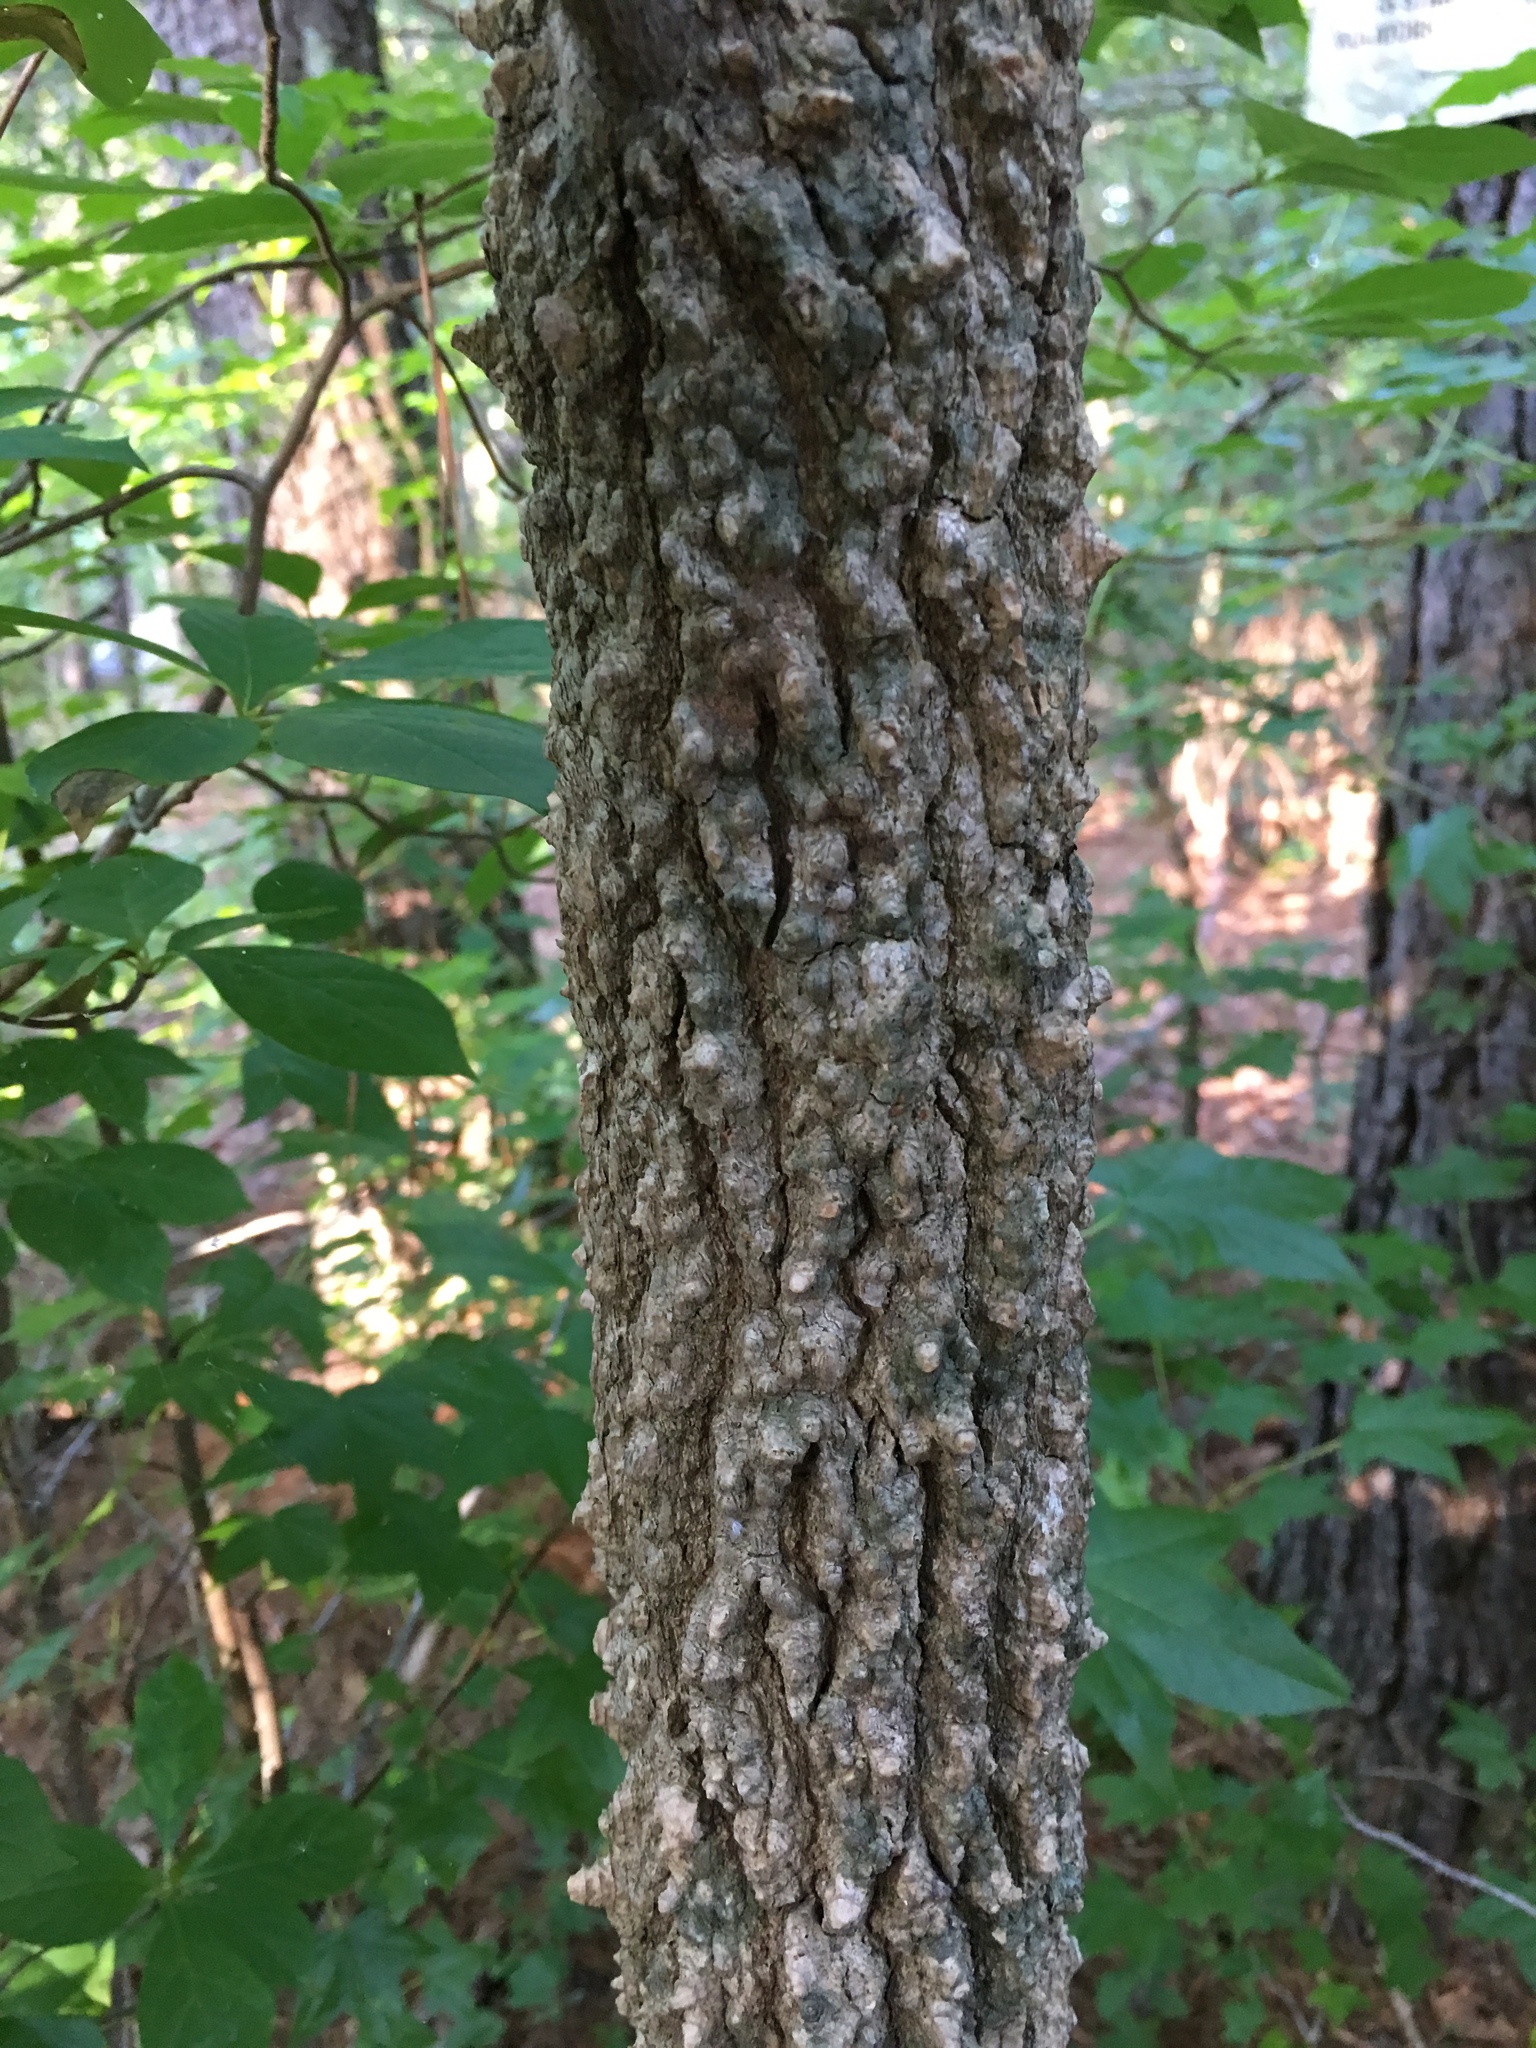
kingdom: Plantae
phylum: Tracheophyta
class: Magnoliopsida
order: Saxifragales
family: Altingiaceae
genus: Liquidambar
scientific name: Liquidambar styraciflua
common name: Sweet gum
